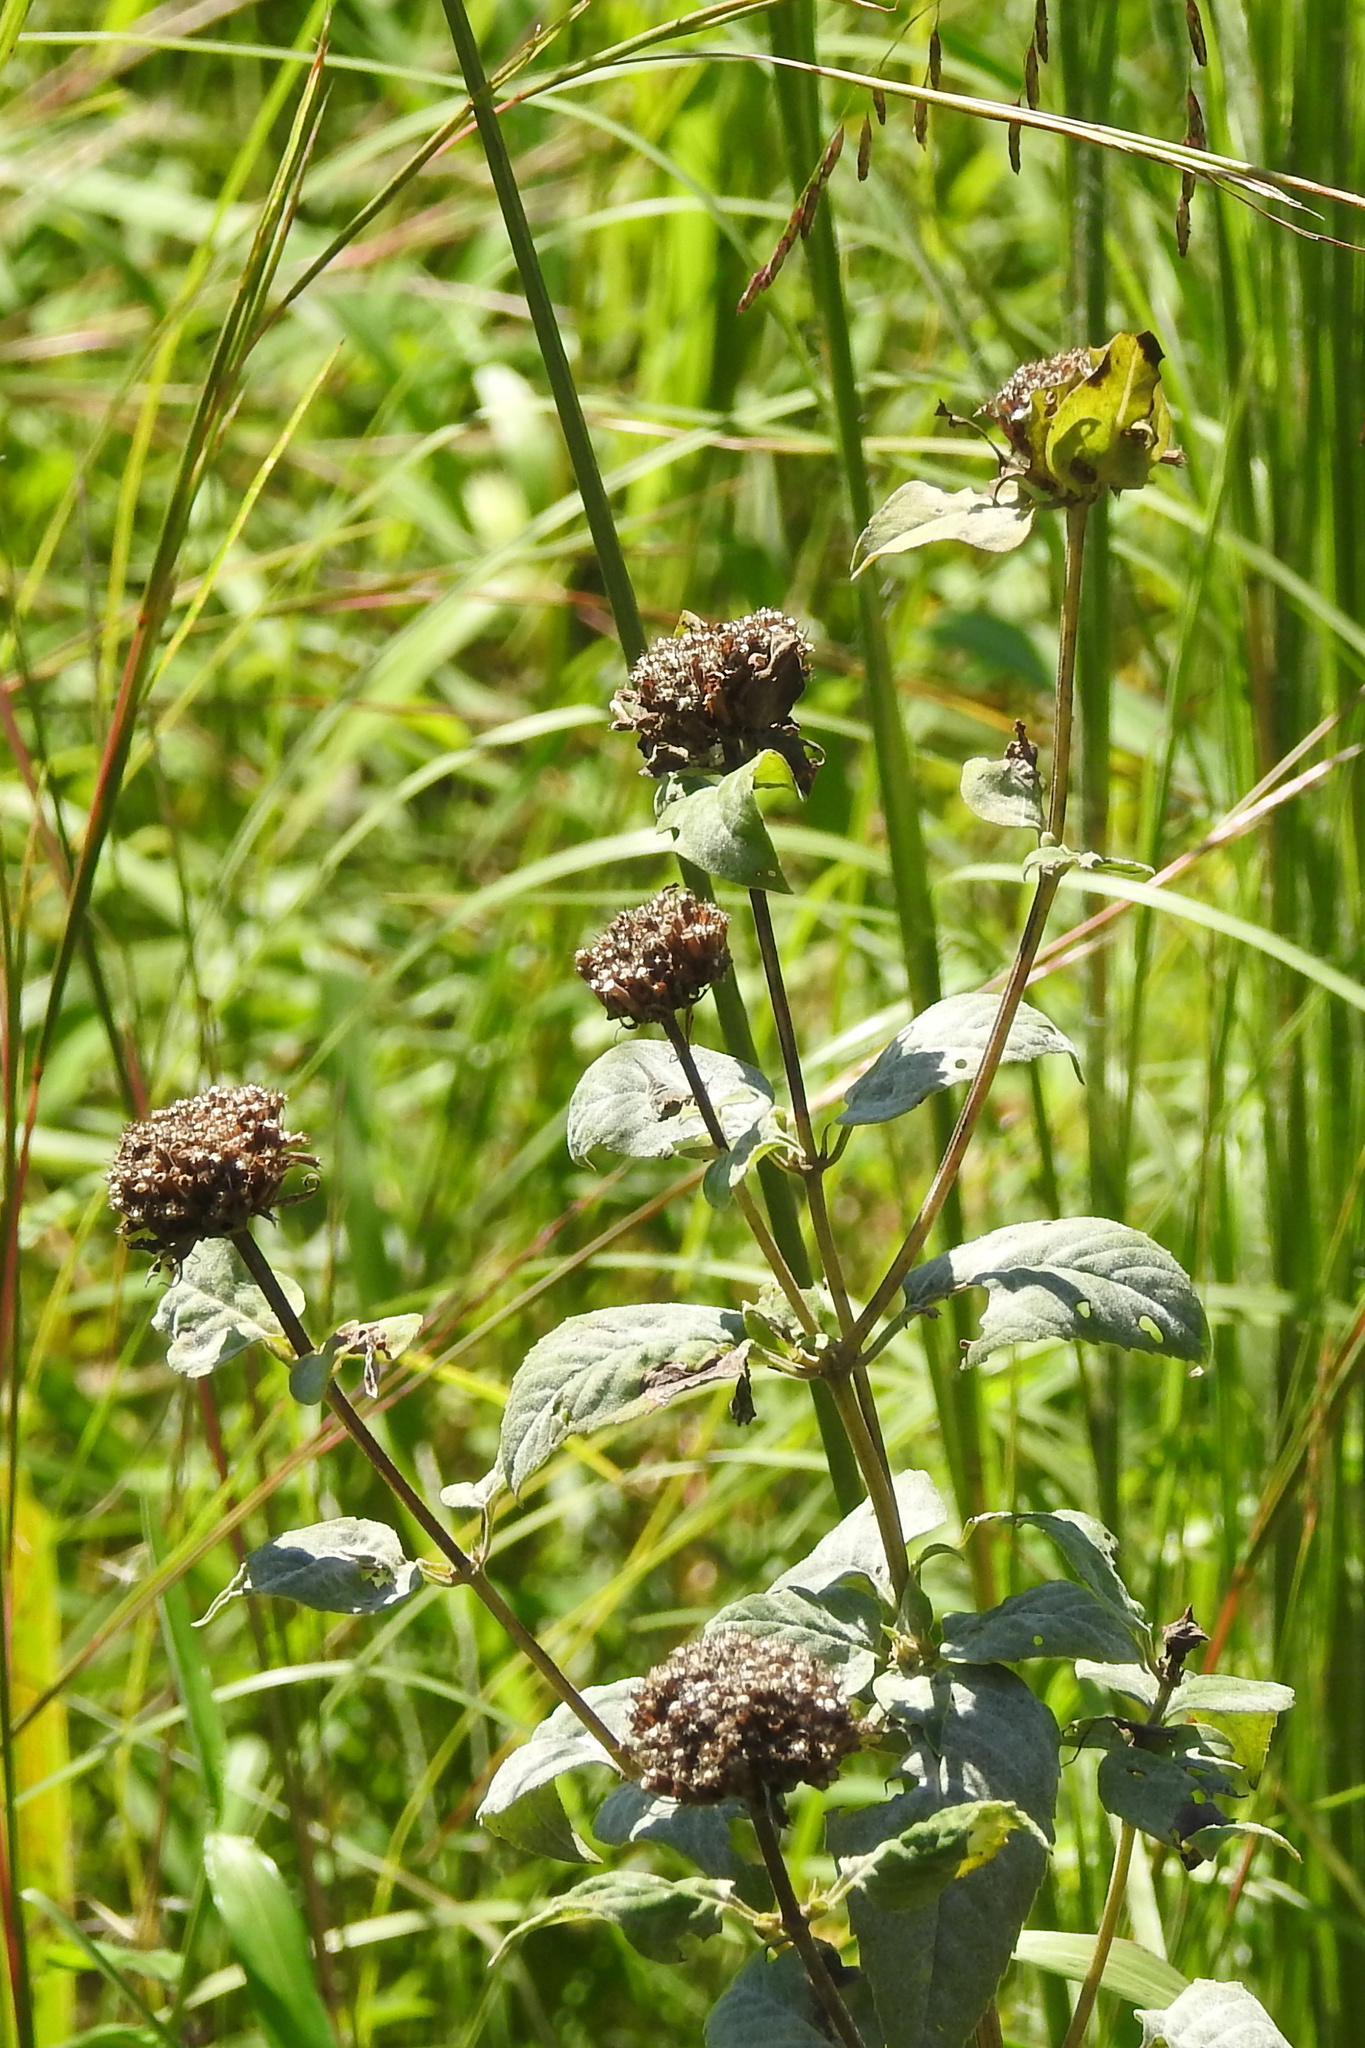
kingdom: Plantae
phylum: Tracheophyta
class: Magnoliopsida
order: Lamiales
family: Lamiaceae
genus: Pycnanthemum
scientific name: Pycnanthemum muticum
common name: Blunt mountain-mint
